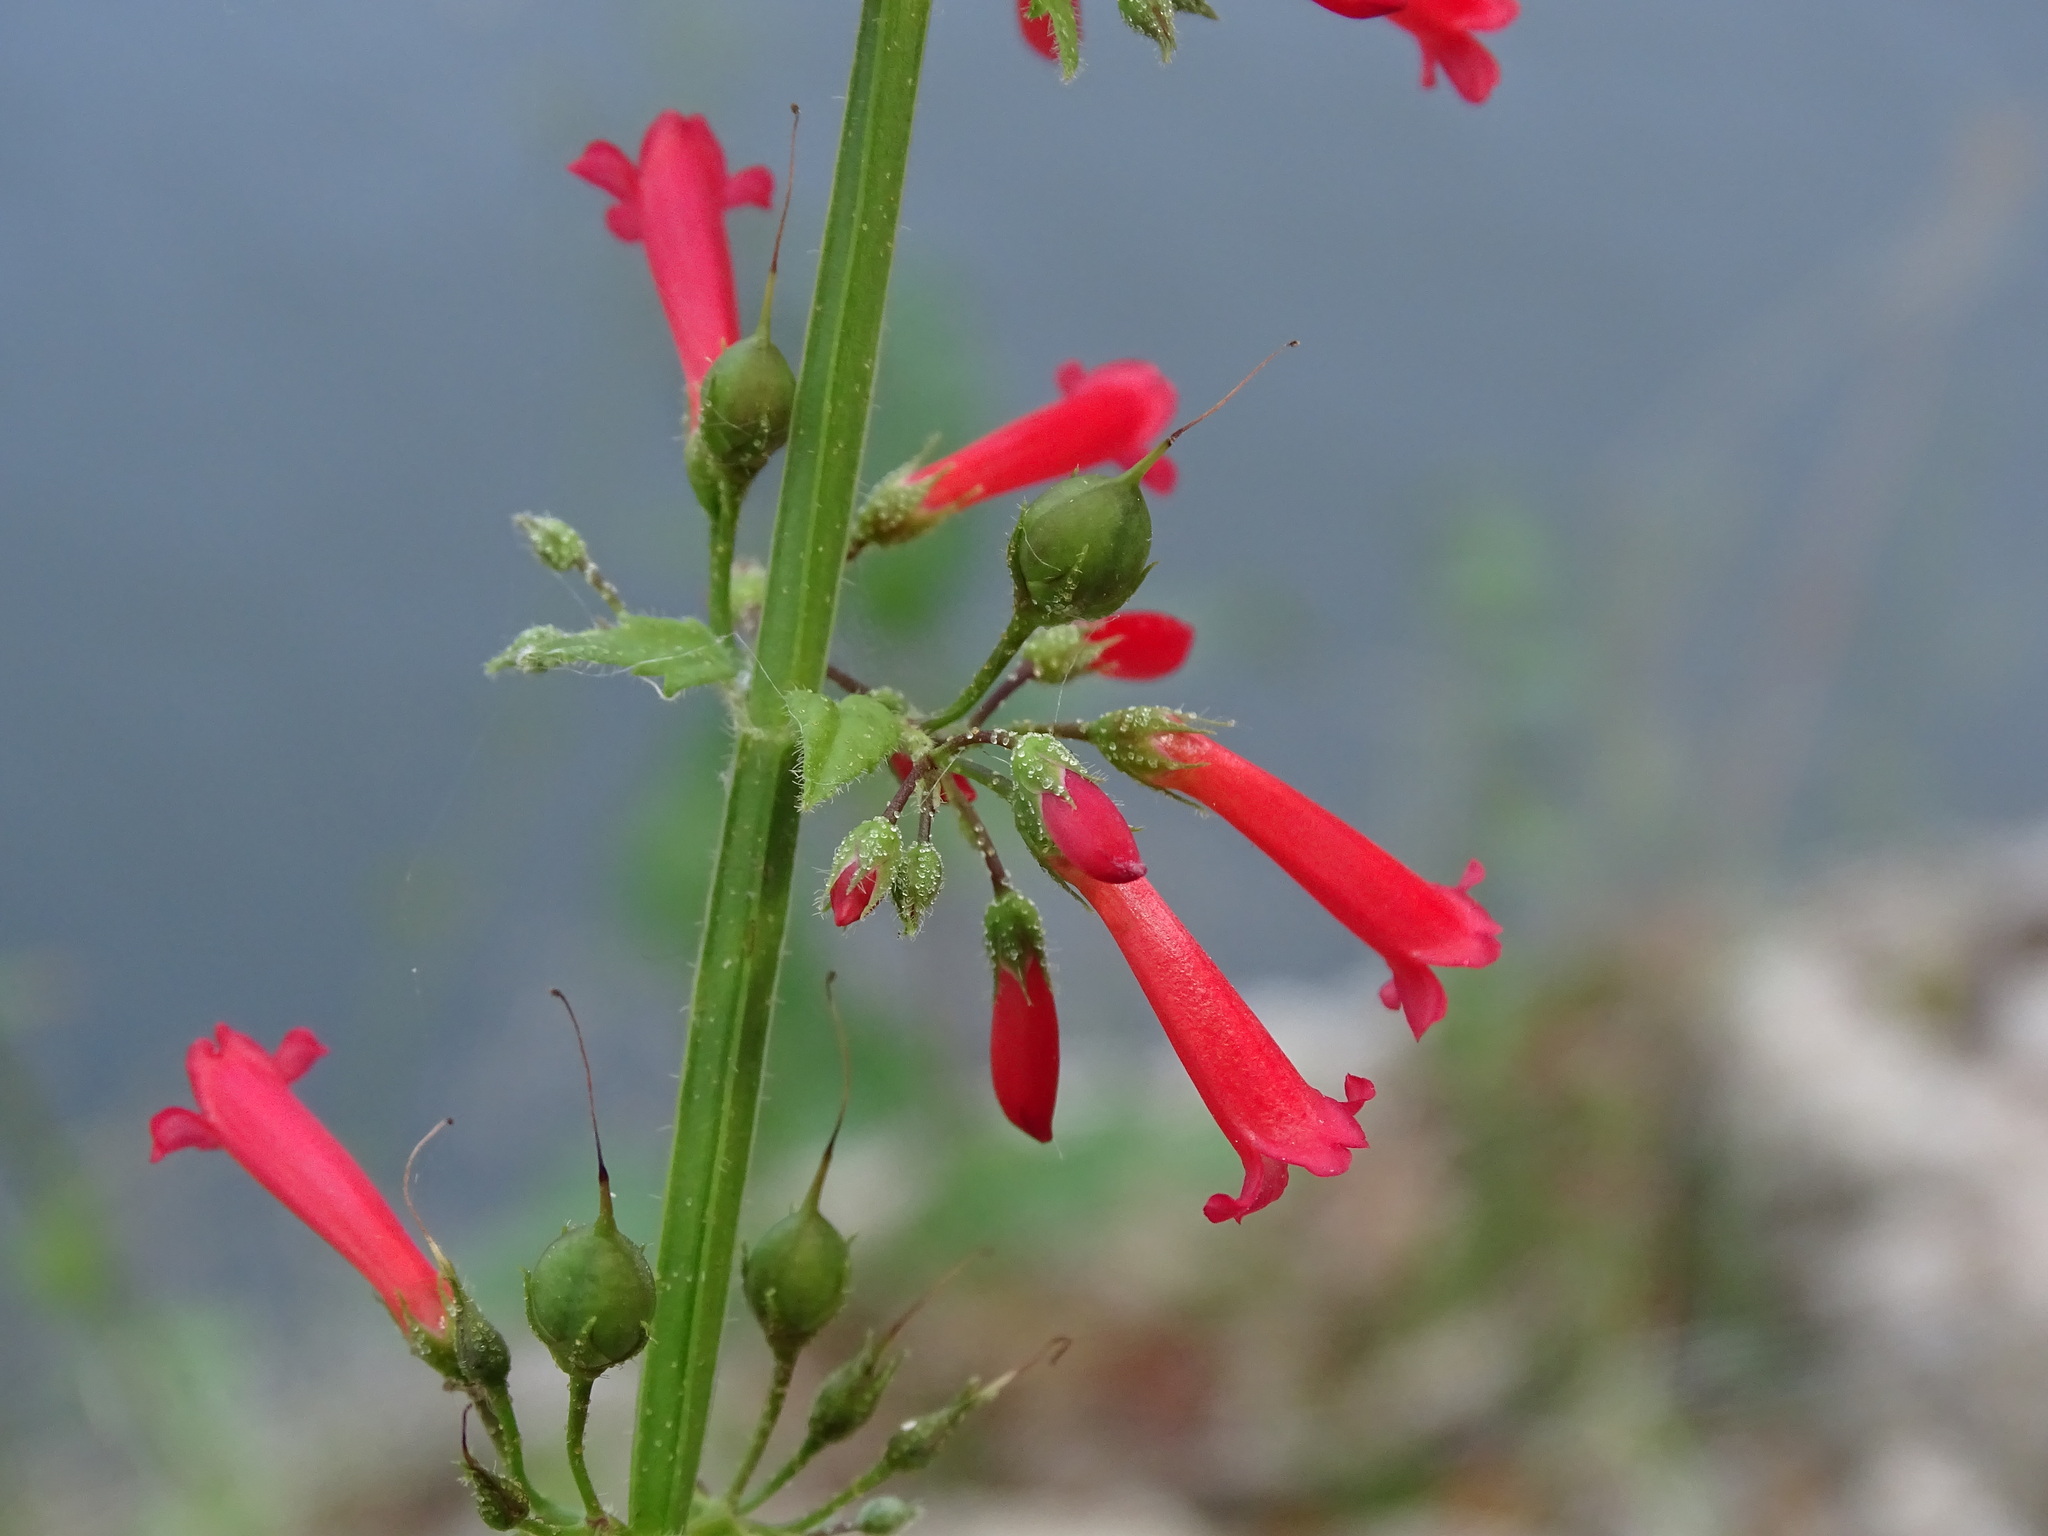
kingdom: Plantae
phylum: Tracheophyta
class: Magnoliopsida
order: Lamiales
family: Plantaginaceae
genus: Russelia
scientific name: Russelia sarmentosa
